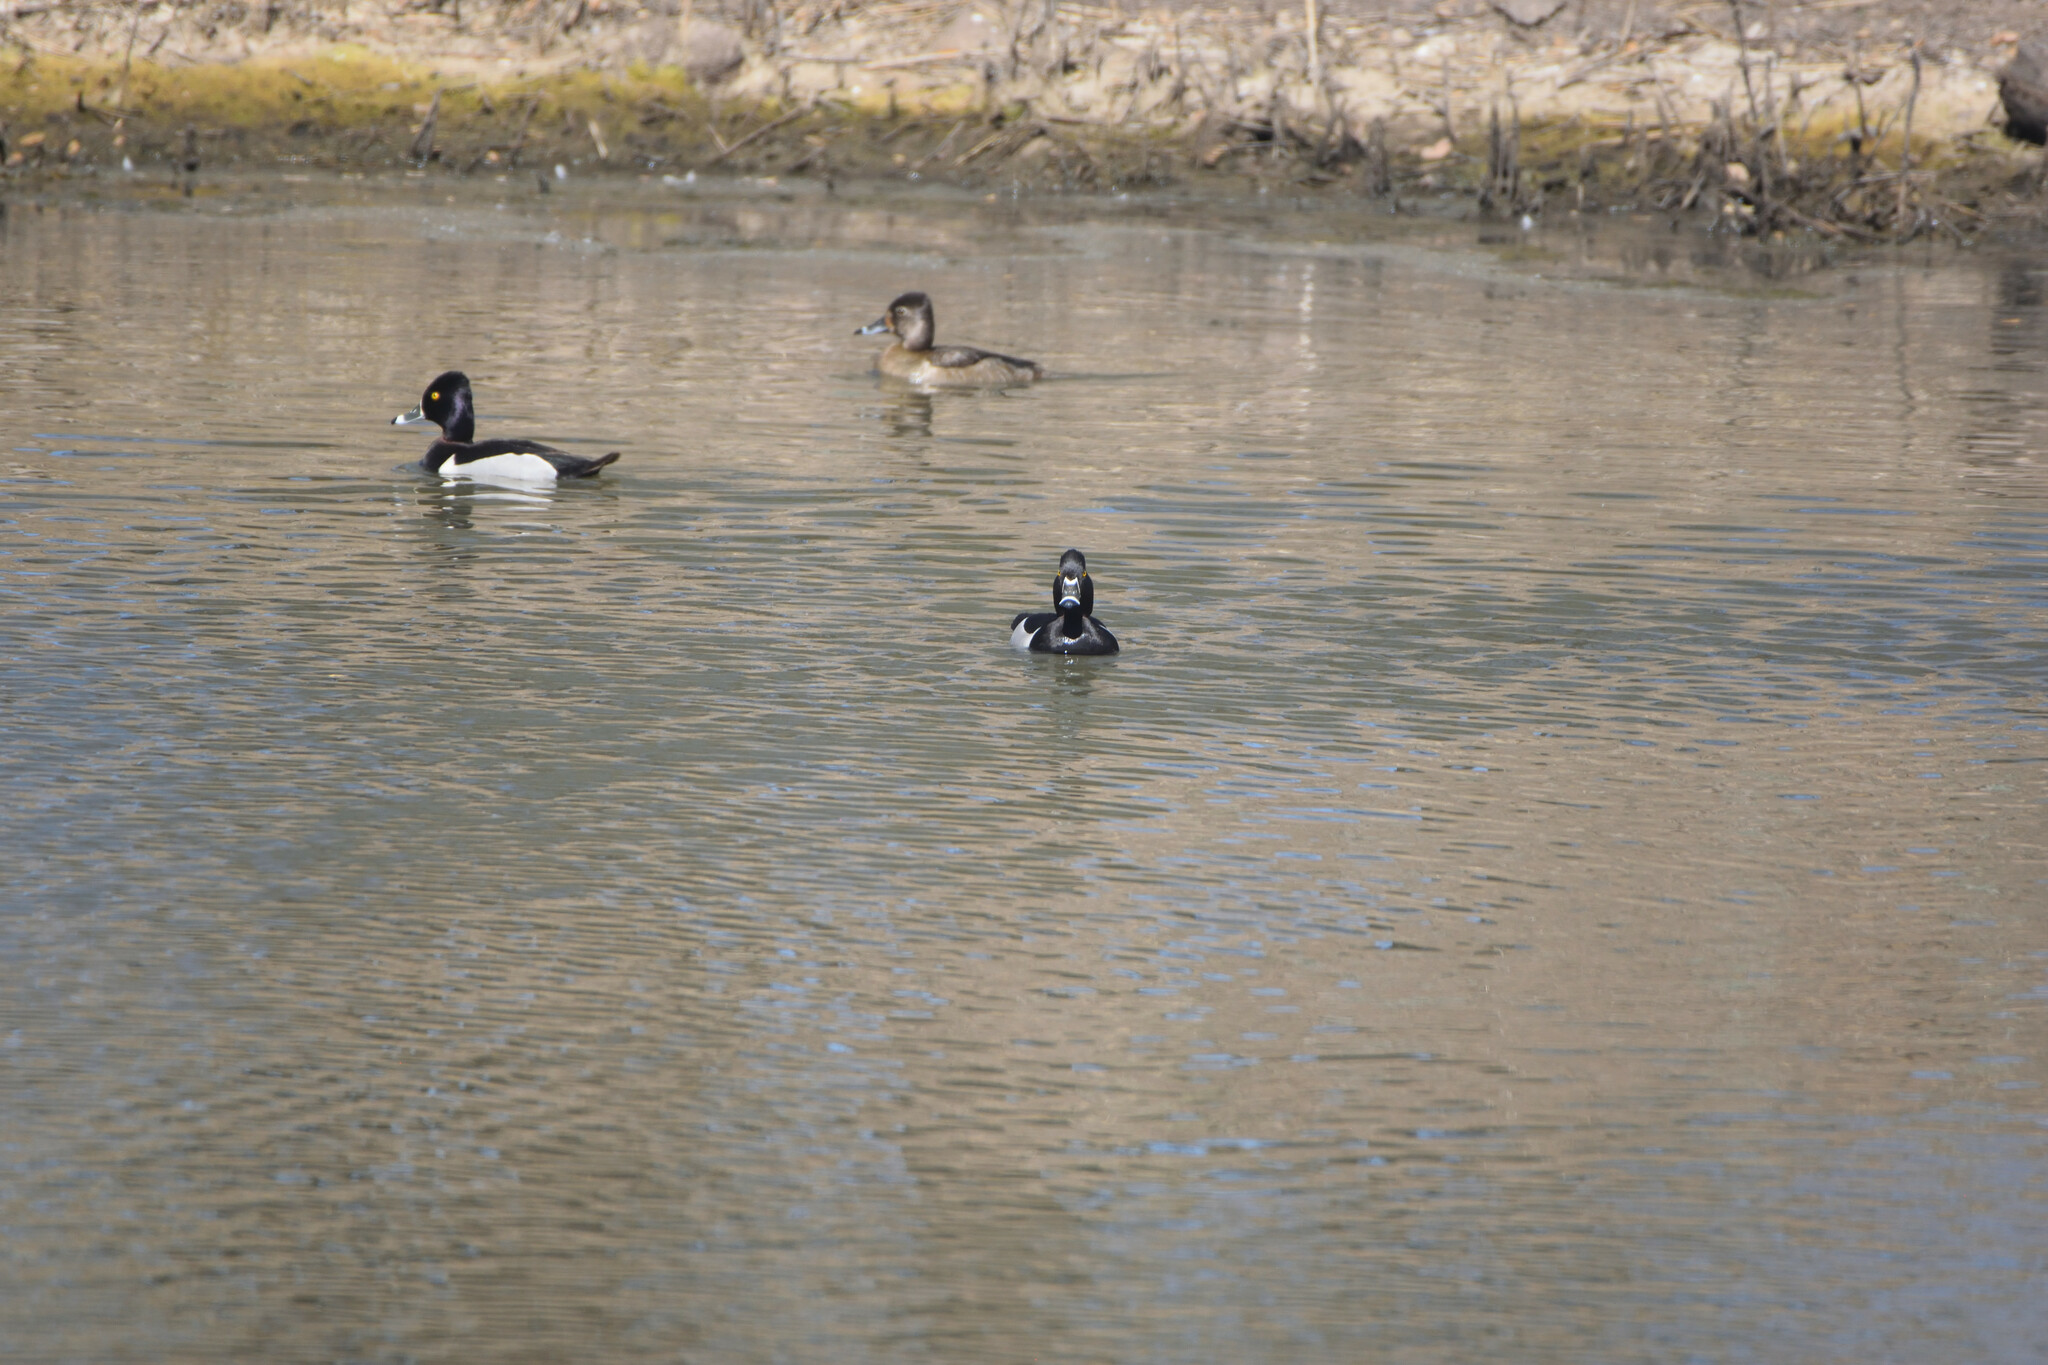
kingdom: Animalia
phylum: Chordata
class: Aves
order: Anseriformes
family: Anatidae
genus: Aythya
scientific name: Aythya collaris
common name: Ring-necked duck
